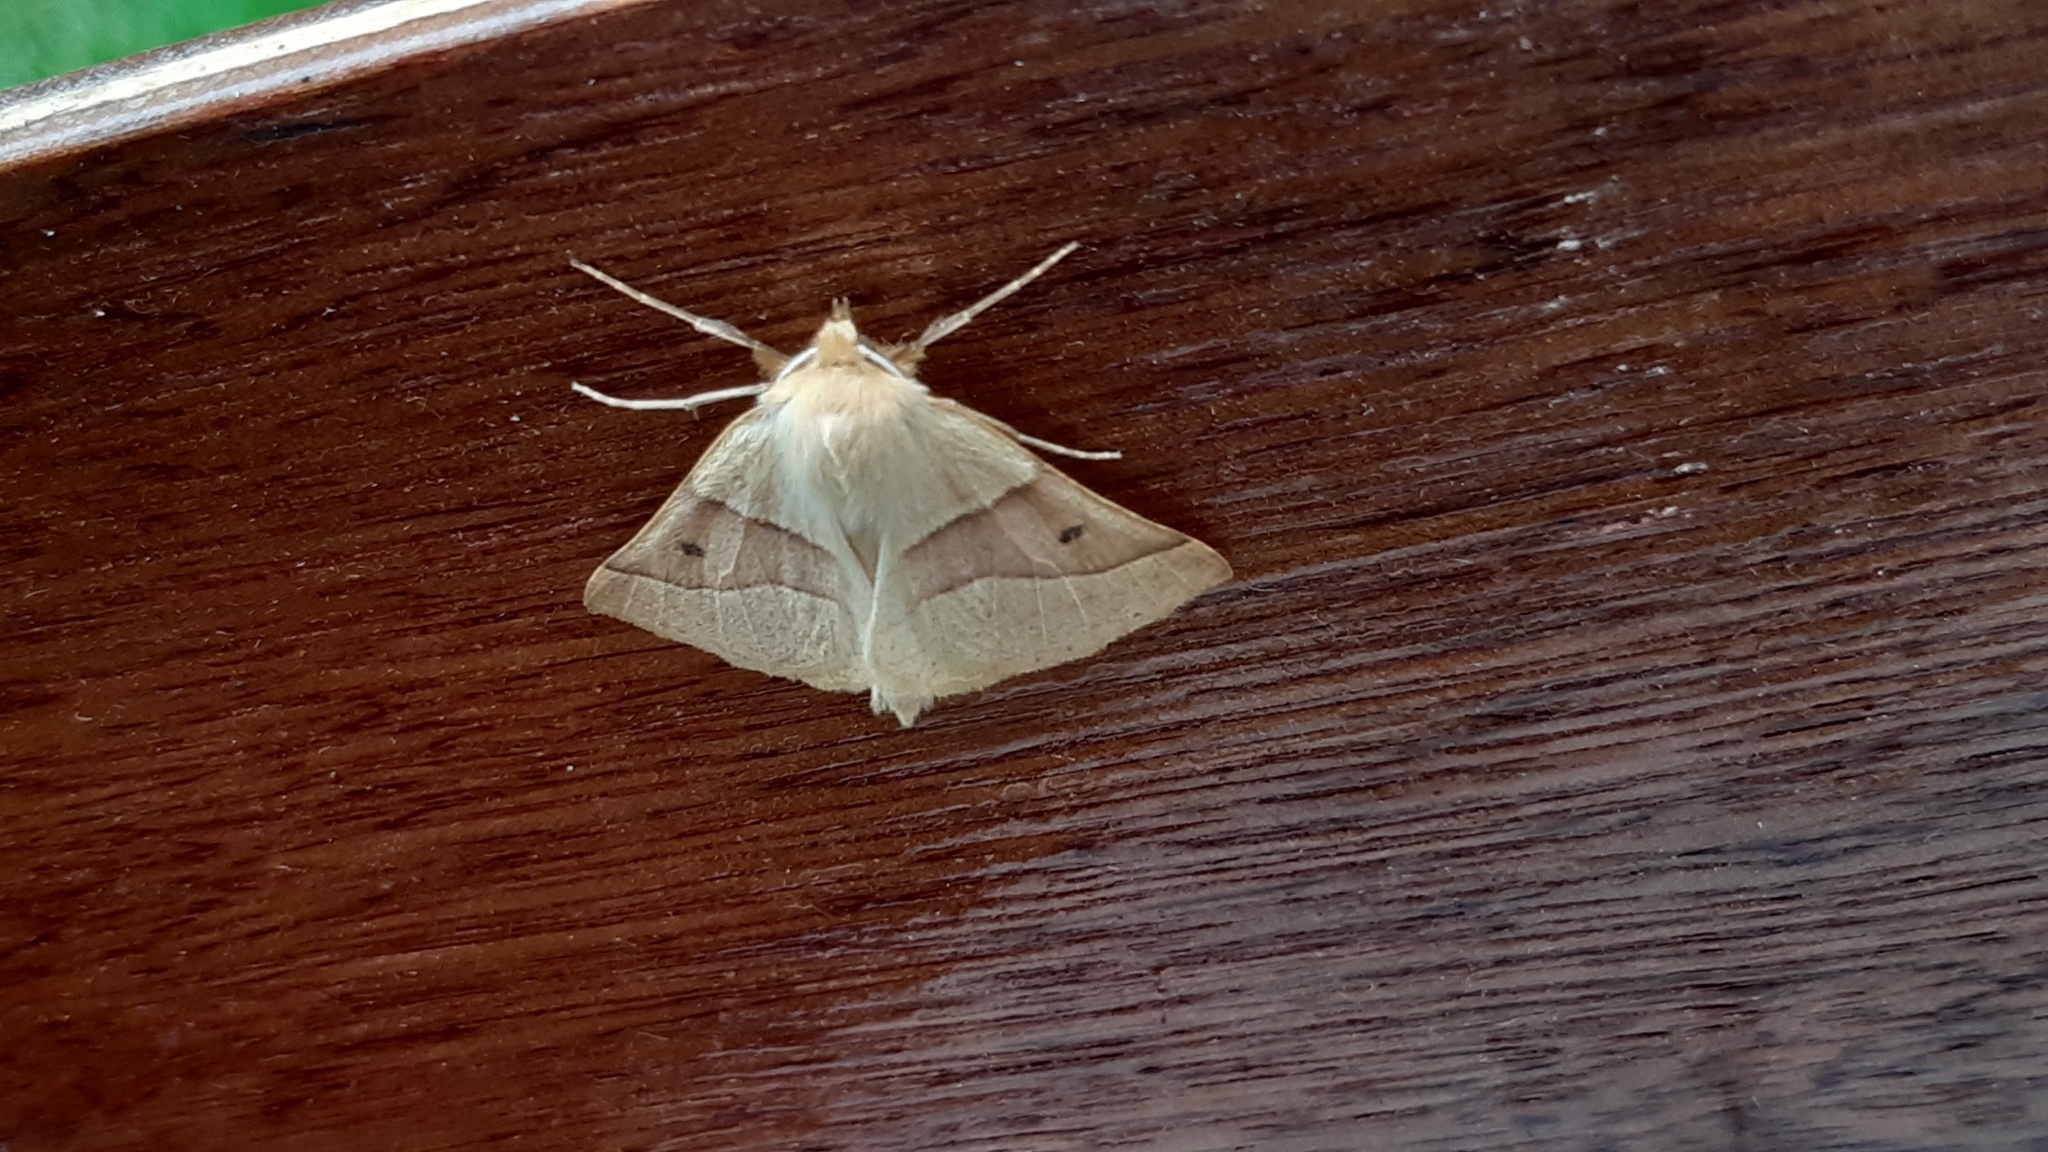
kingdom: Animalia
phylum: Arthropoda
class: Insecta
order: Lepidoptera
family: Geometridae
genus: Crocallis
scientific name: Crocallis elinguaria
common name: Scalloped oak
